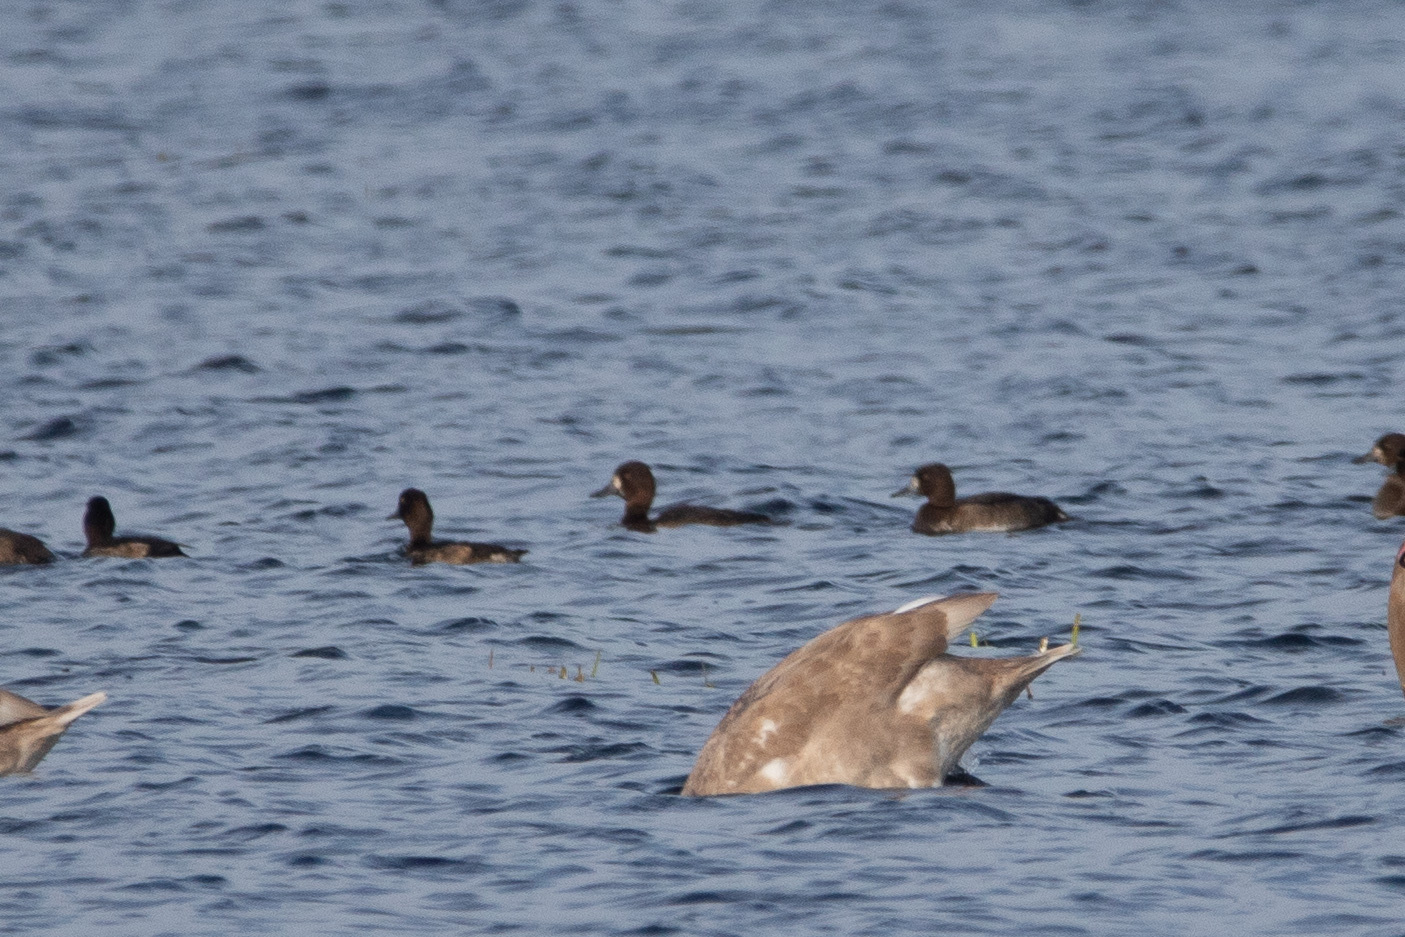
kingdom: Animalia
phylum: Chordata
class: Aves
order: Anseriformes
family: Anatidae
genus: Aythya
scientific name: Aythya fuligula
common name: Tufted duck
